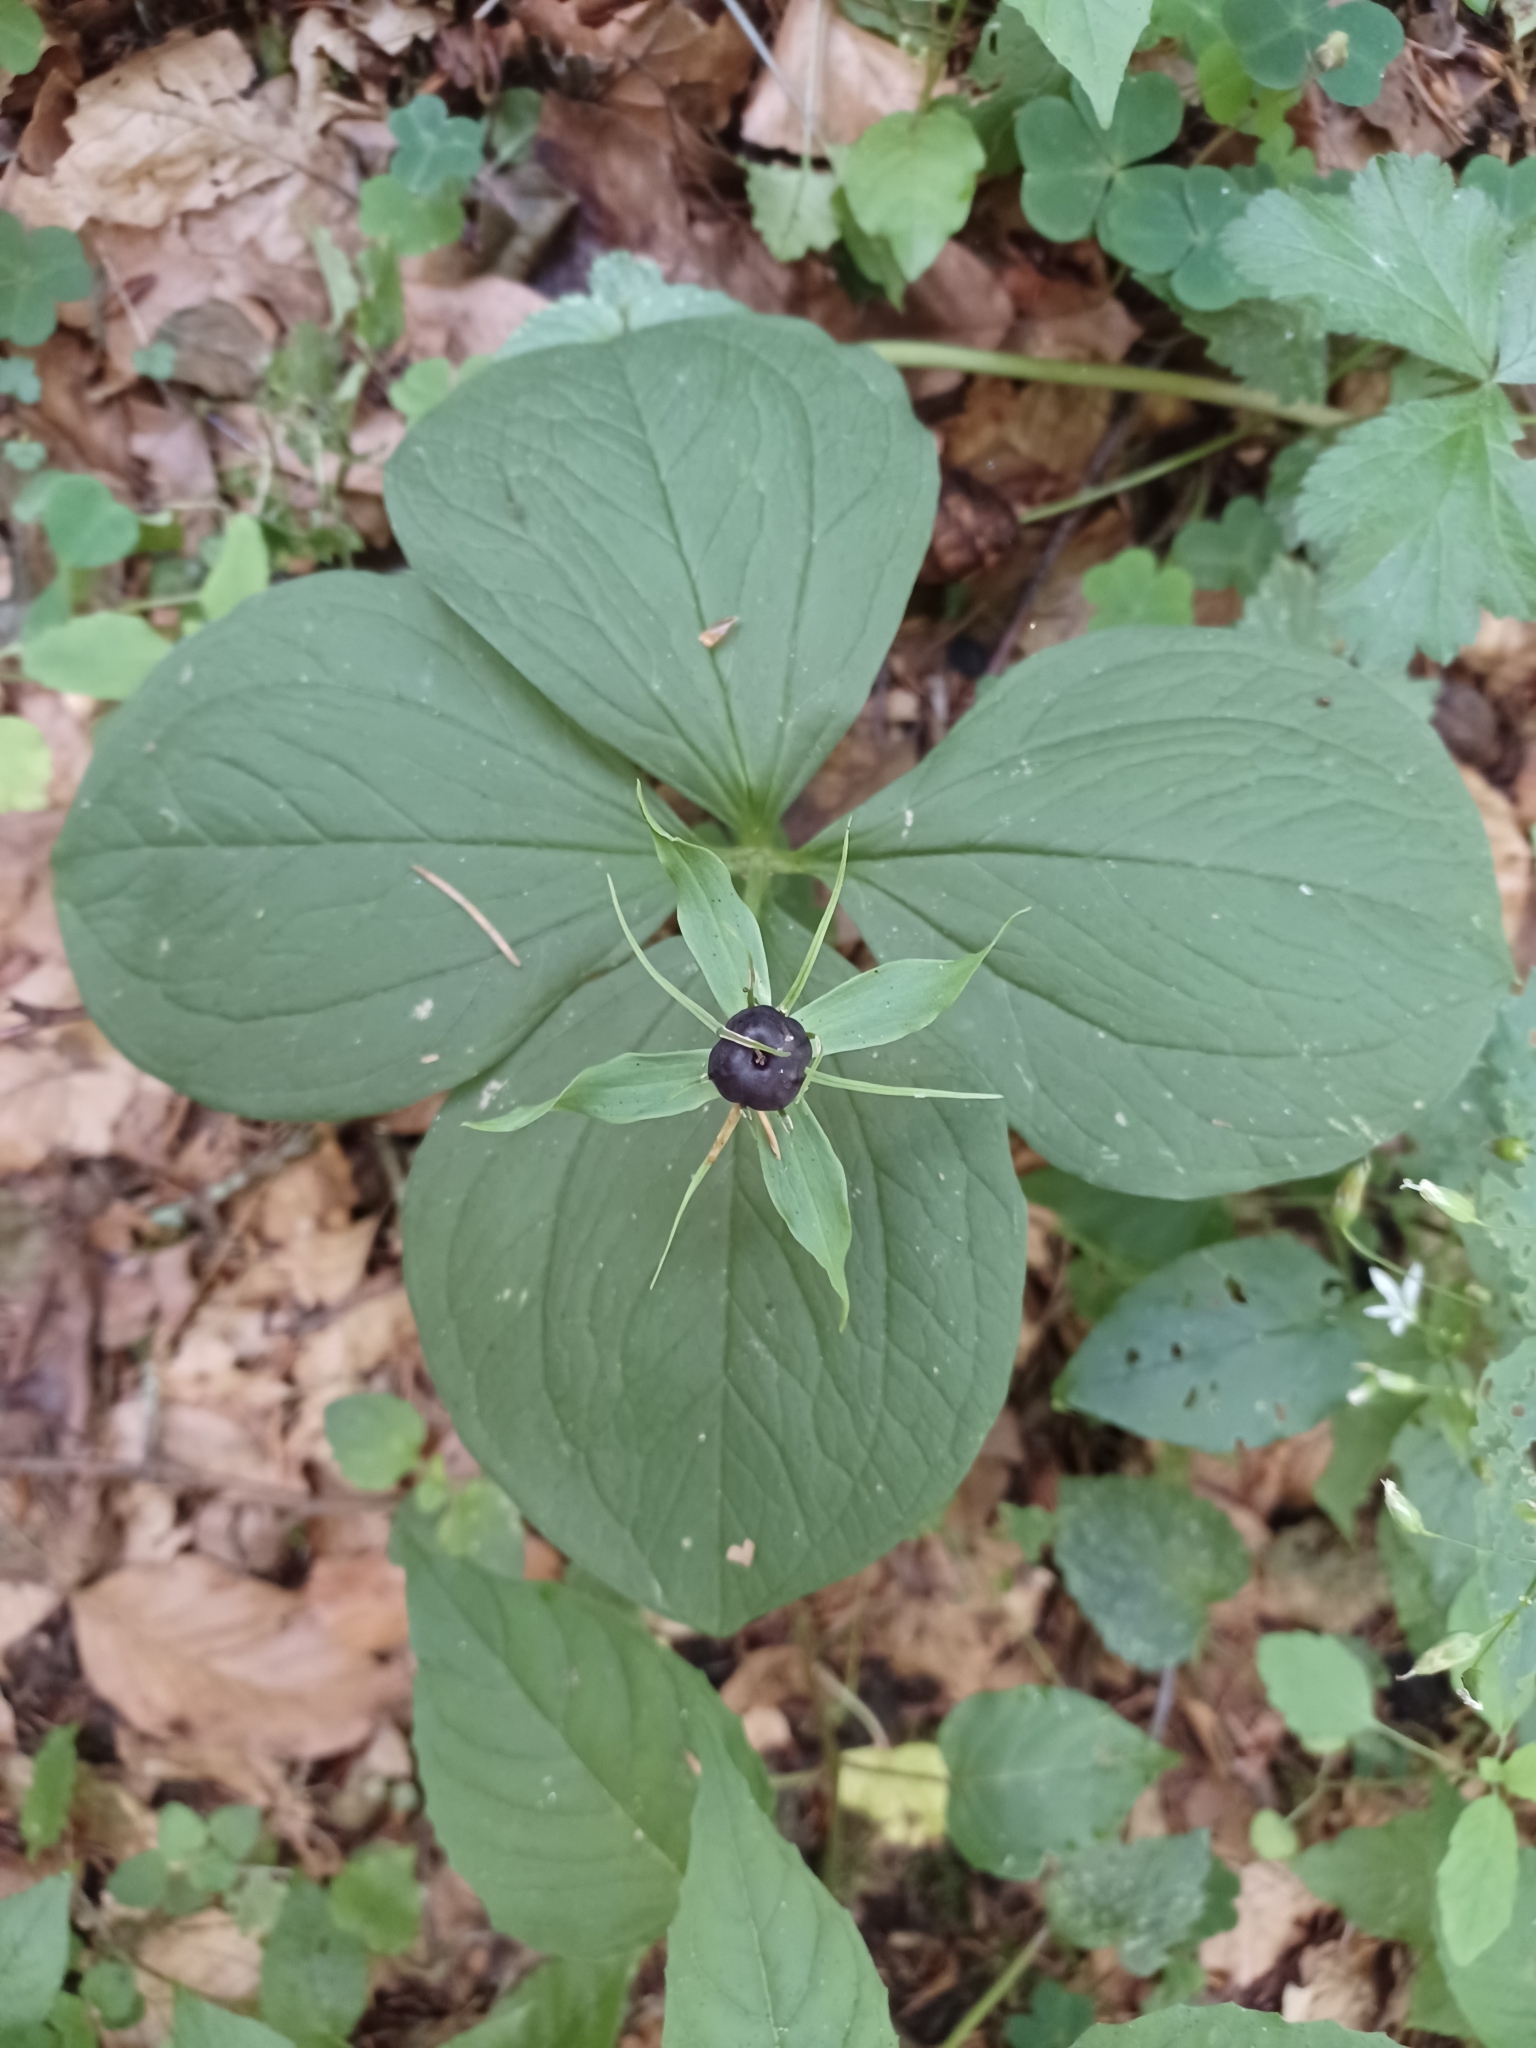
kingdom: Plantae
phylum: Tracheophyta
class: Liliopsida
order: Liliales
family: Melanthiaceae
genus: Paris
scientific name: Paris quadrifolia
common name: Herb-paris
